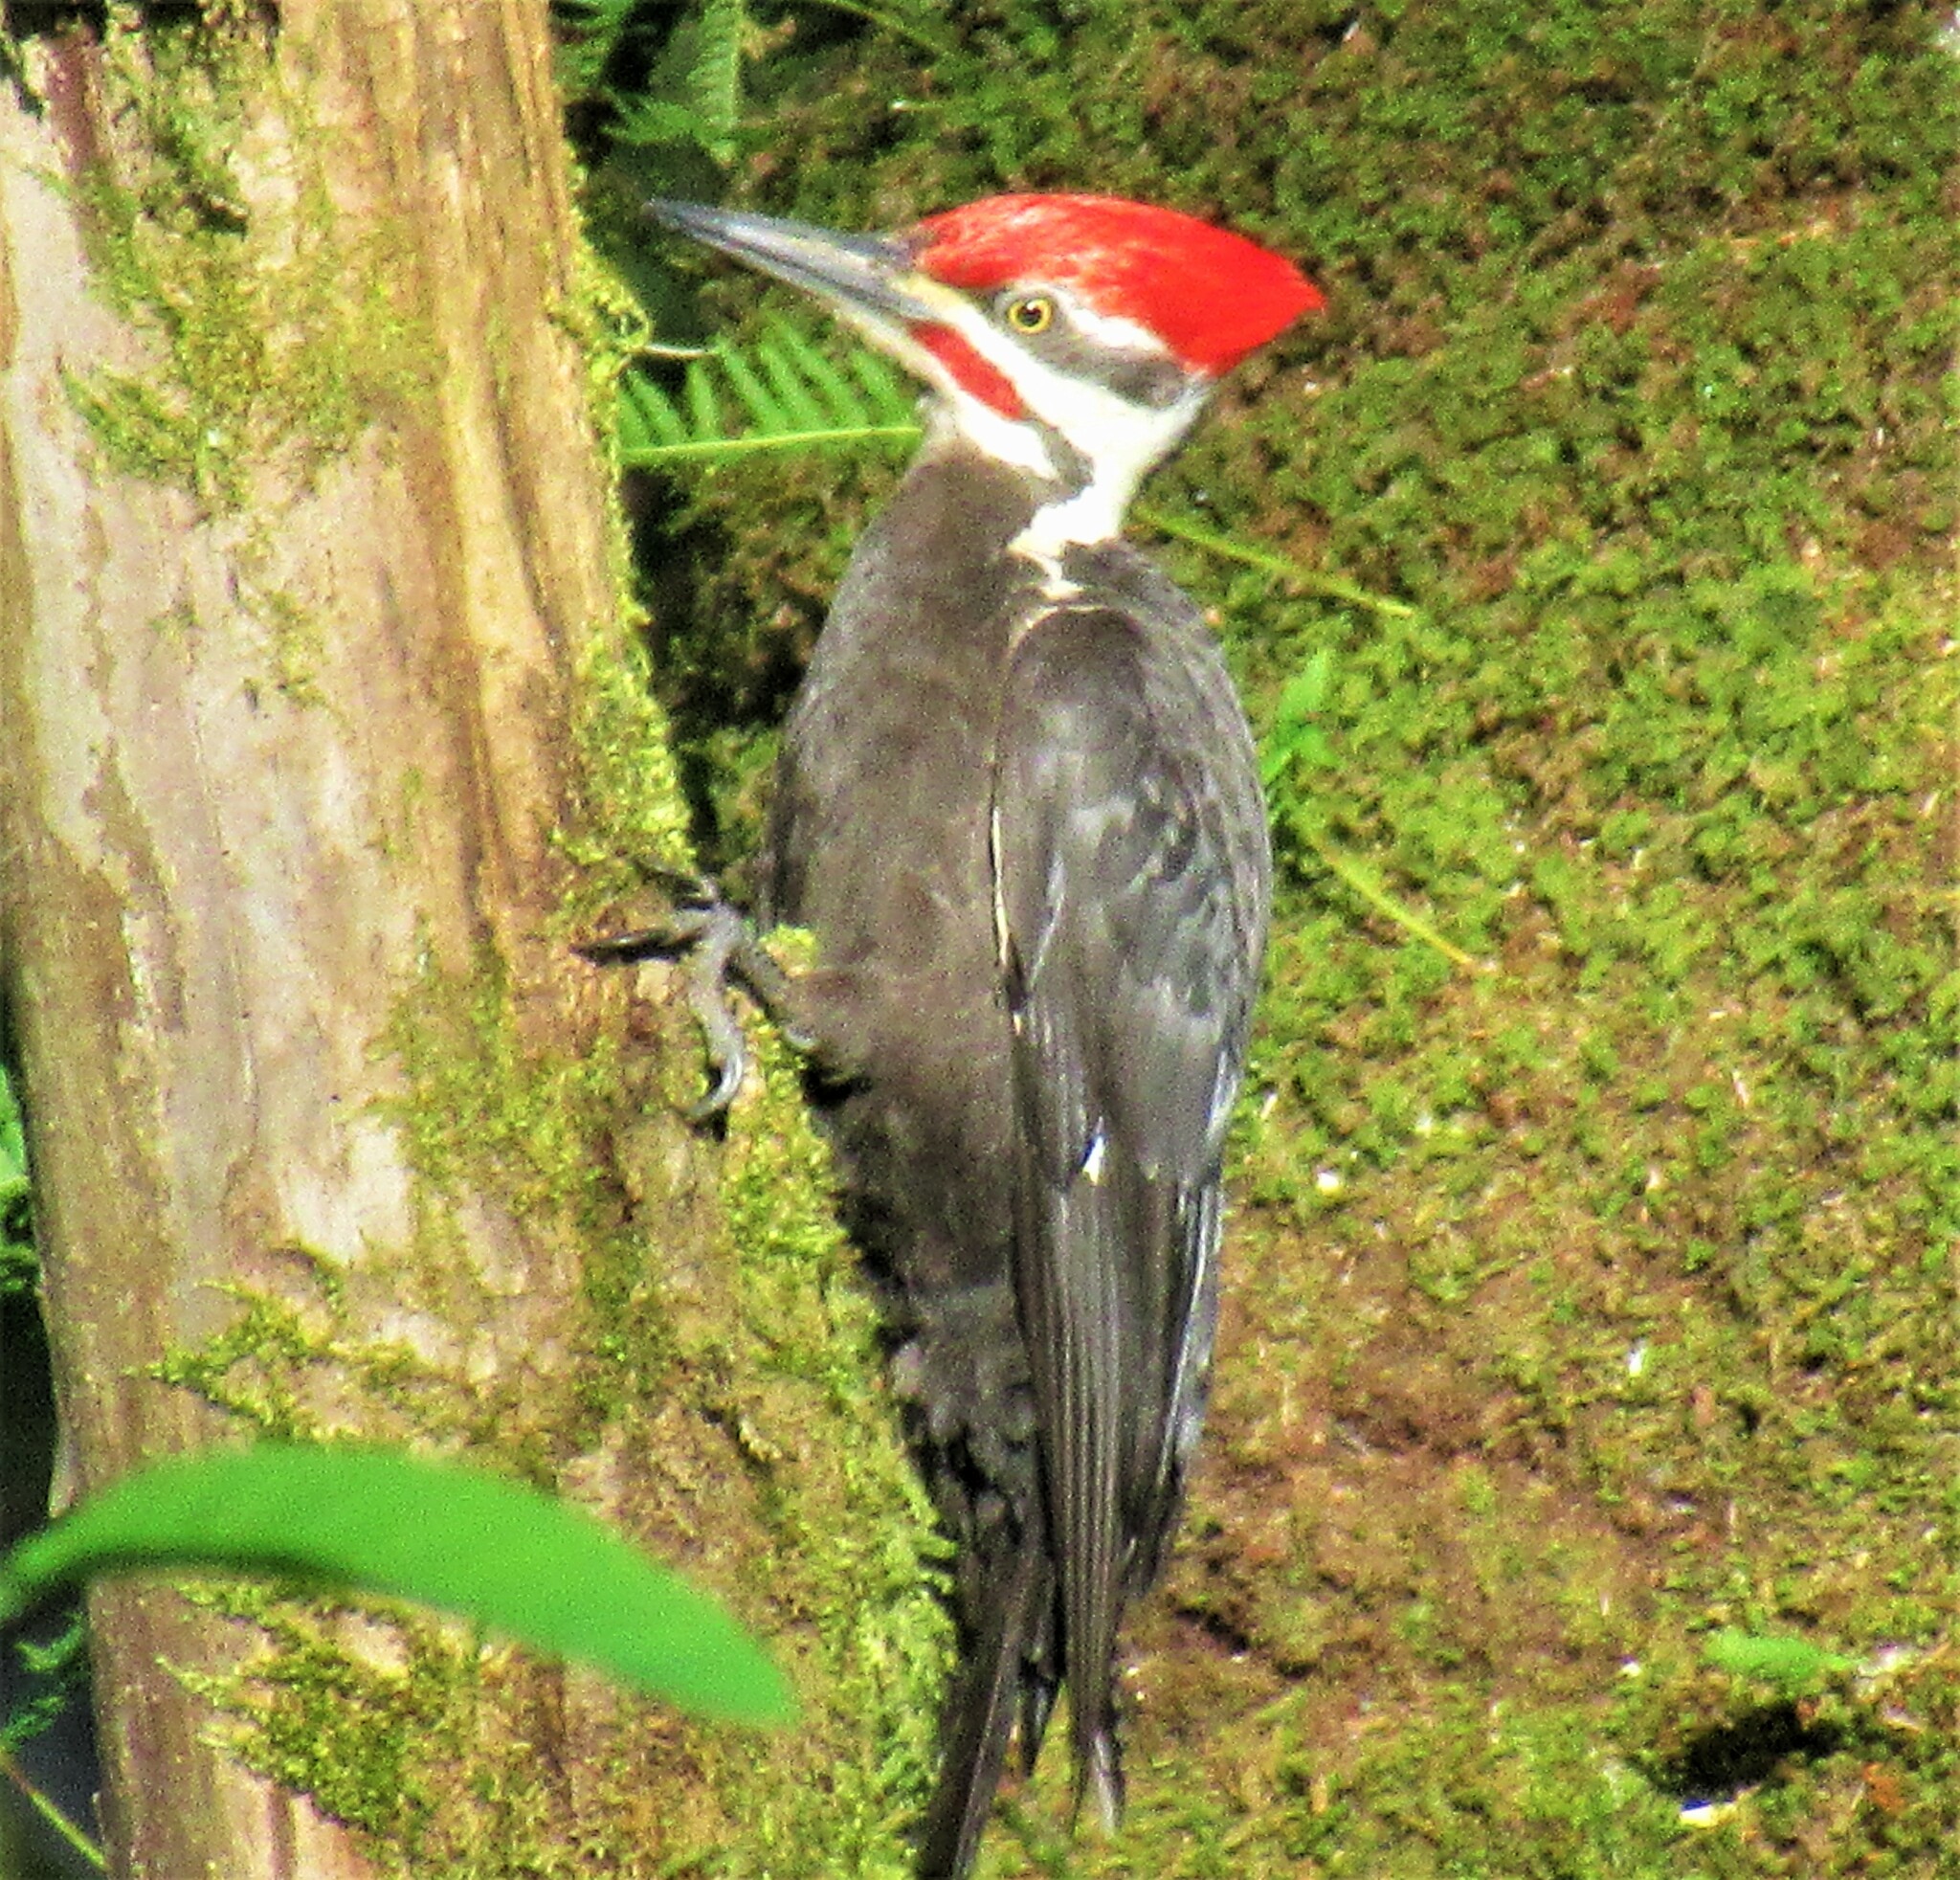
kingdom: Animalia
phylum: Chordata
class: Aves
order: Piciformes
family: Picidae
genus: Dryocopus
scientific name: Dryocopus pileatus
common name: Pileated woodpecker
